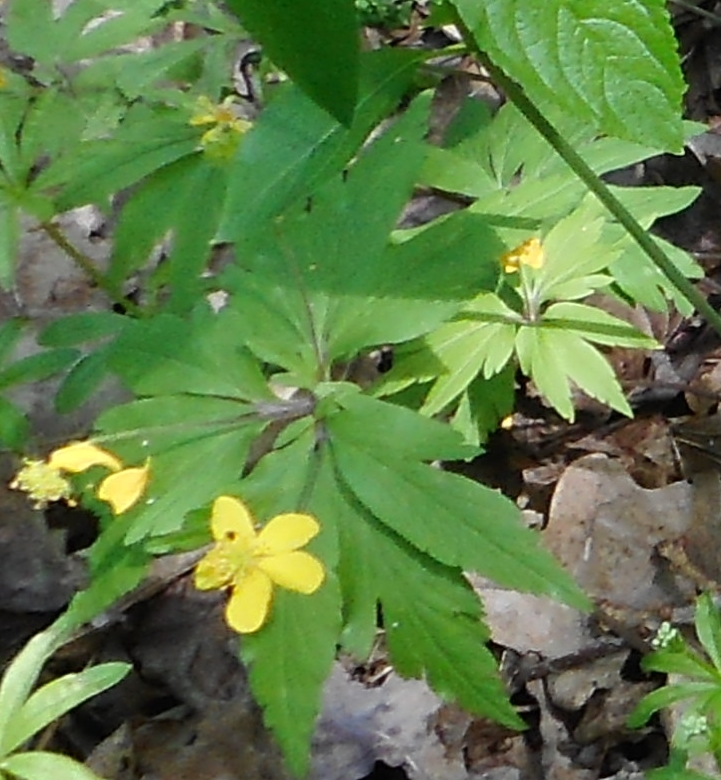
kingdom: Plantae
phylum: Tracheophyta
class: Magnoliopsida
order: Ranunculales
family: Ranunculaceae
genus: Anemone
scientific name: Anemone ranunculoides
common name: Yellow anemone
